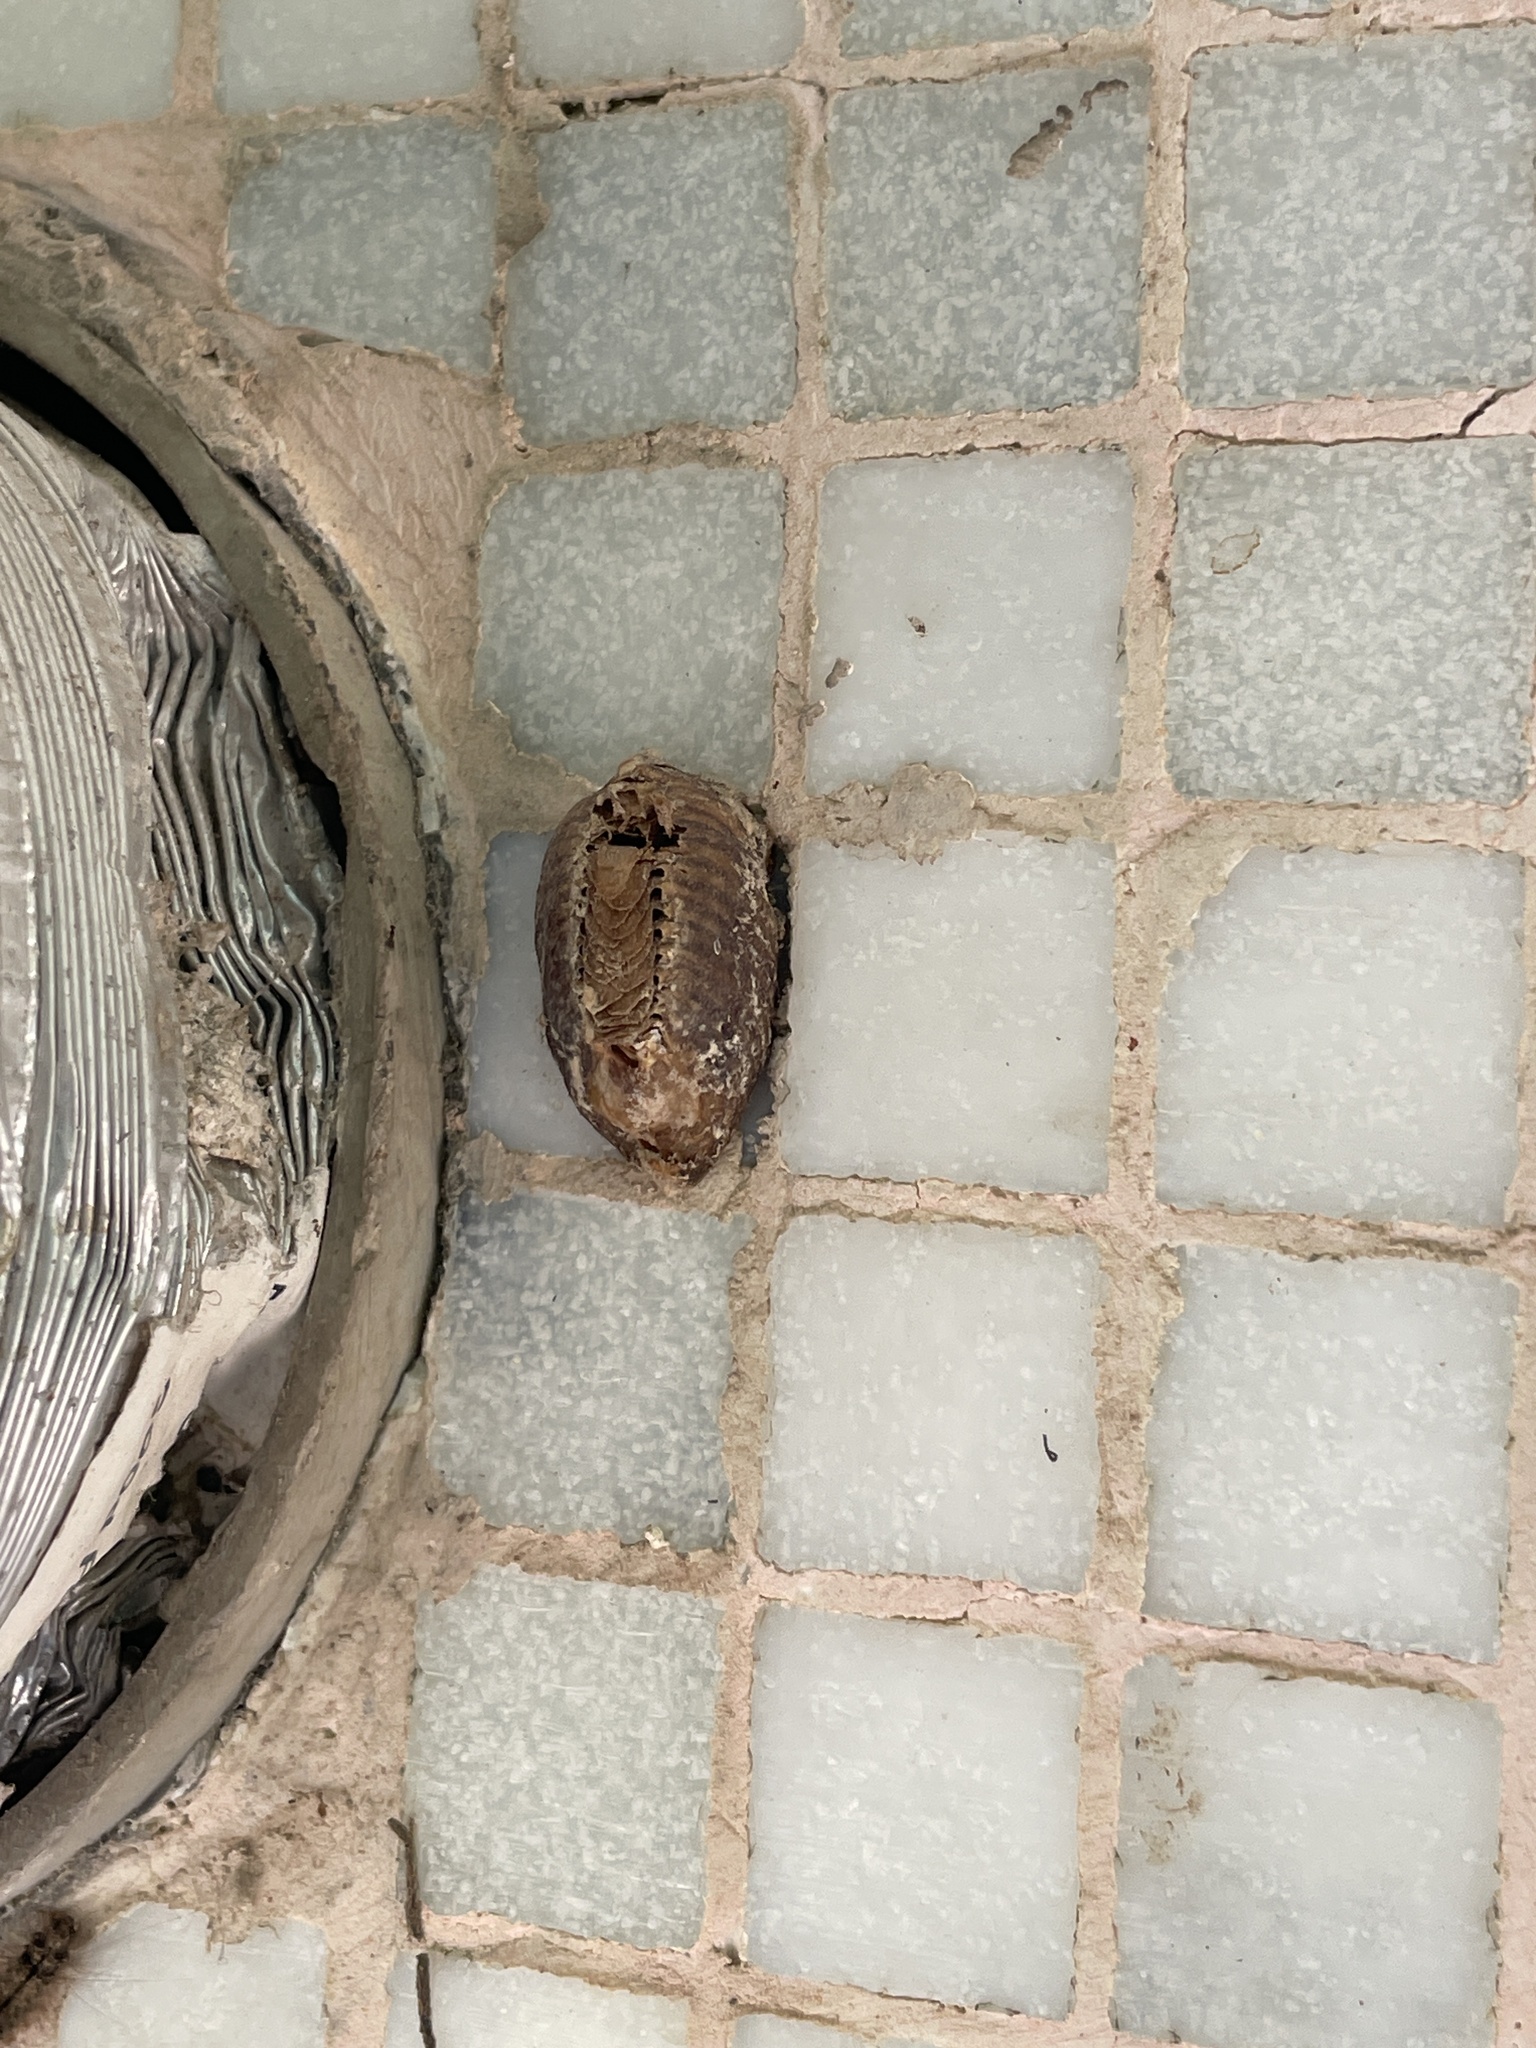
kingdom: Animalia
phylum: Arthropoda
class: Insecta
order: Mantodea
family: Mantidae
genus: Hierodula
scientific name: Hierodula patellifera
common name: Asian mantis
